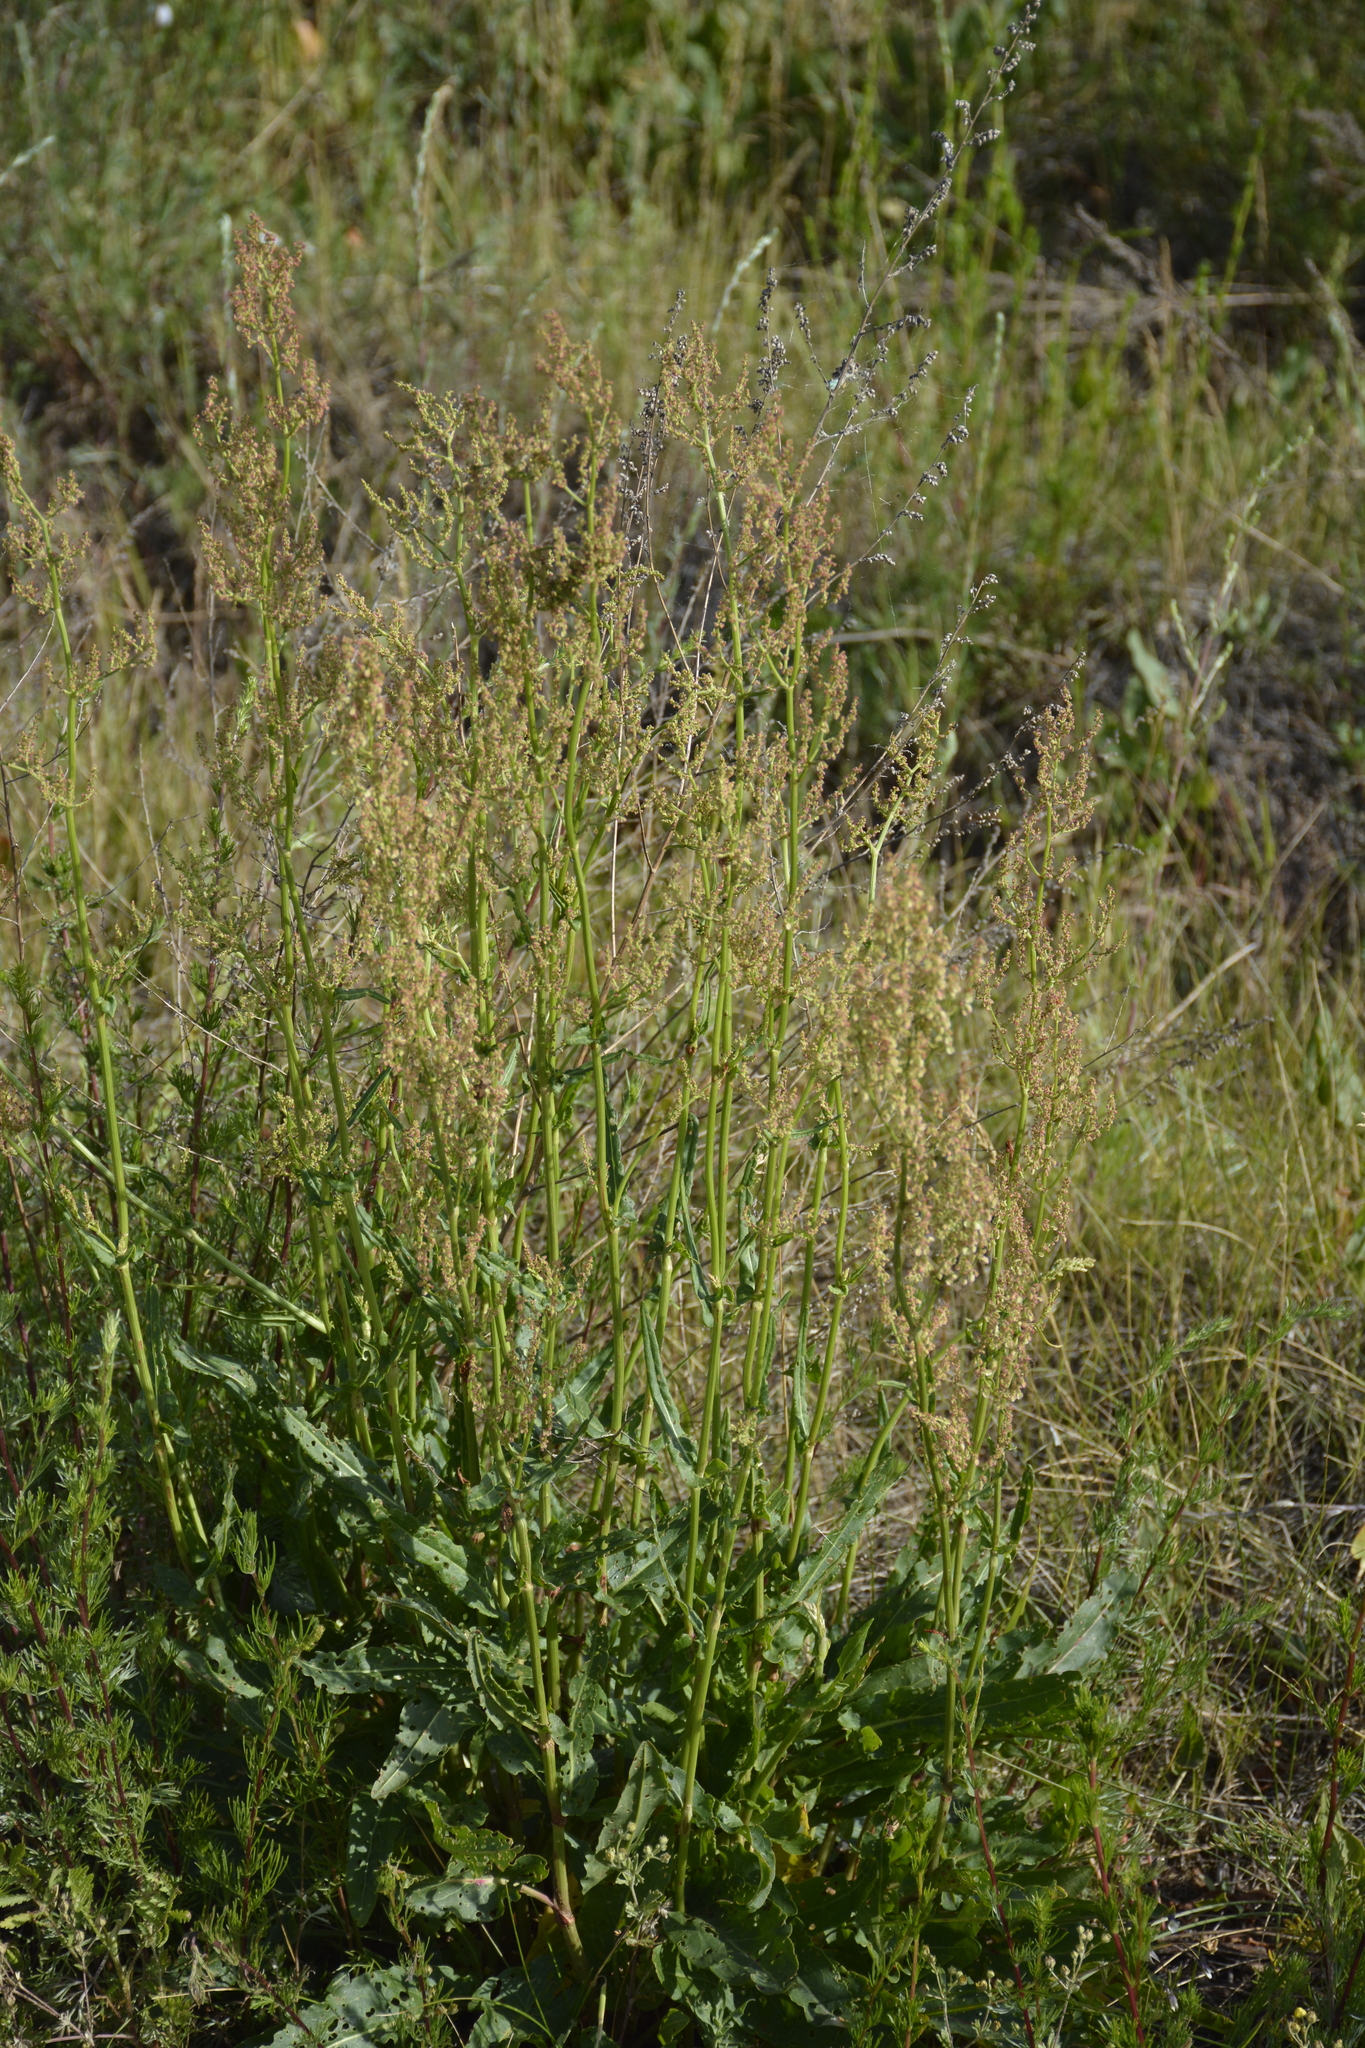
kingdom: Plantae
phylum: Tracheophyta
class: Magnoliopsida
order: Caryophyllales
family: Polygonaceae
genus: Rumex
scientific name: Rumex thyrsiflorus
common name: Garden sorrel
